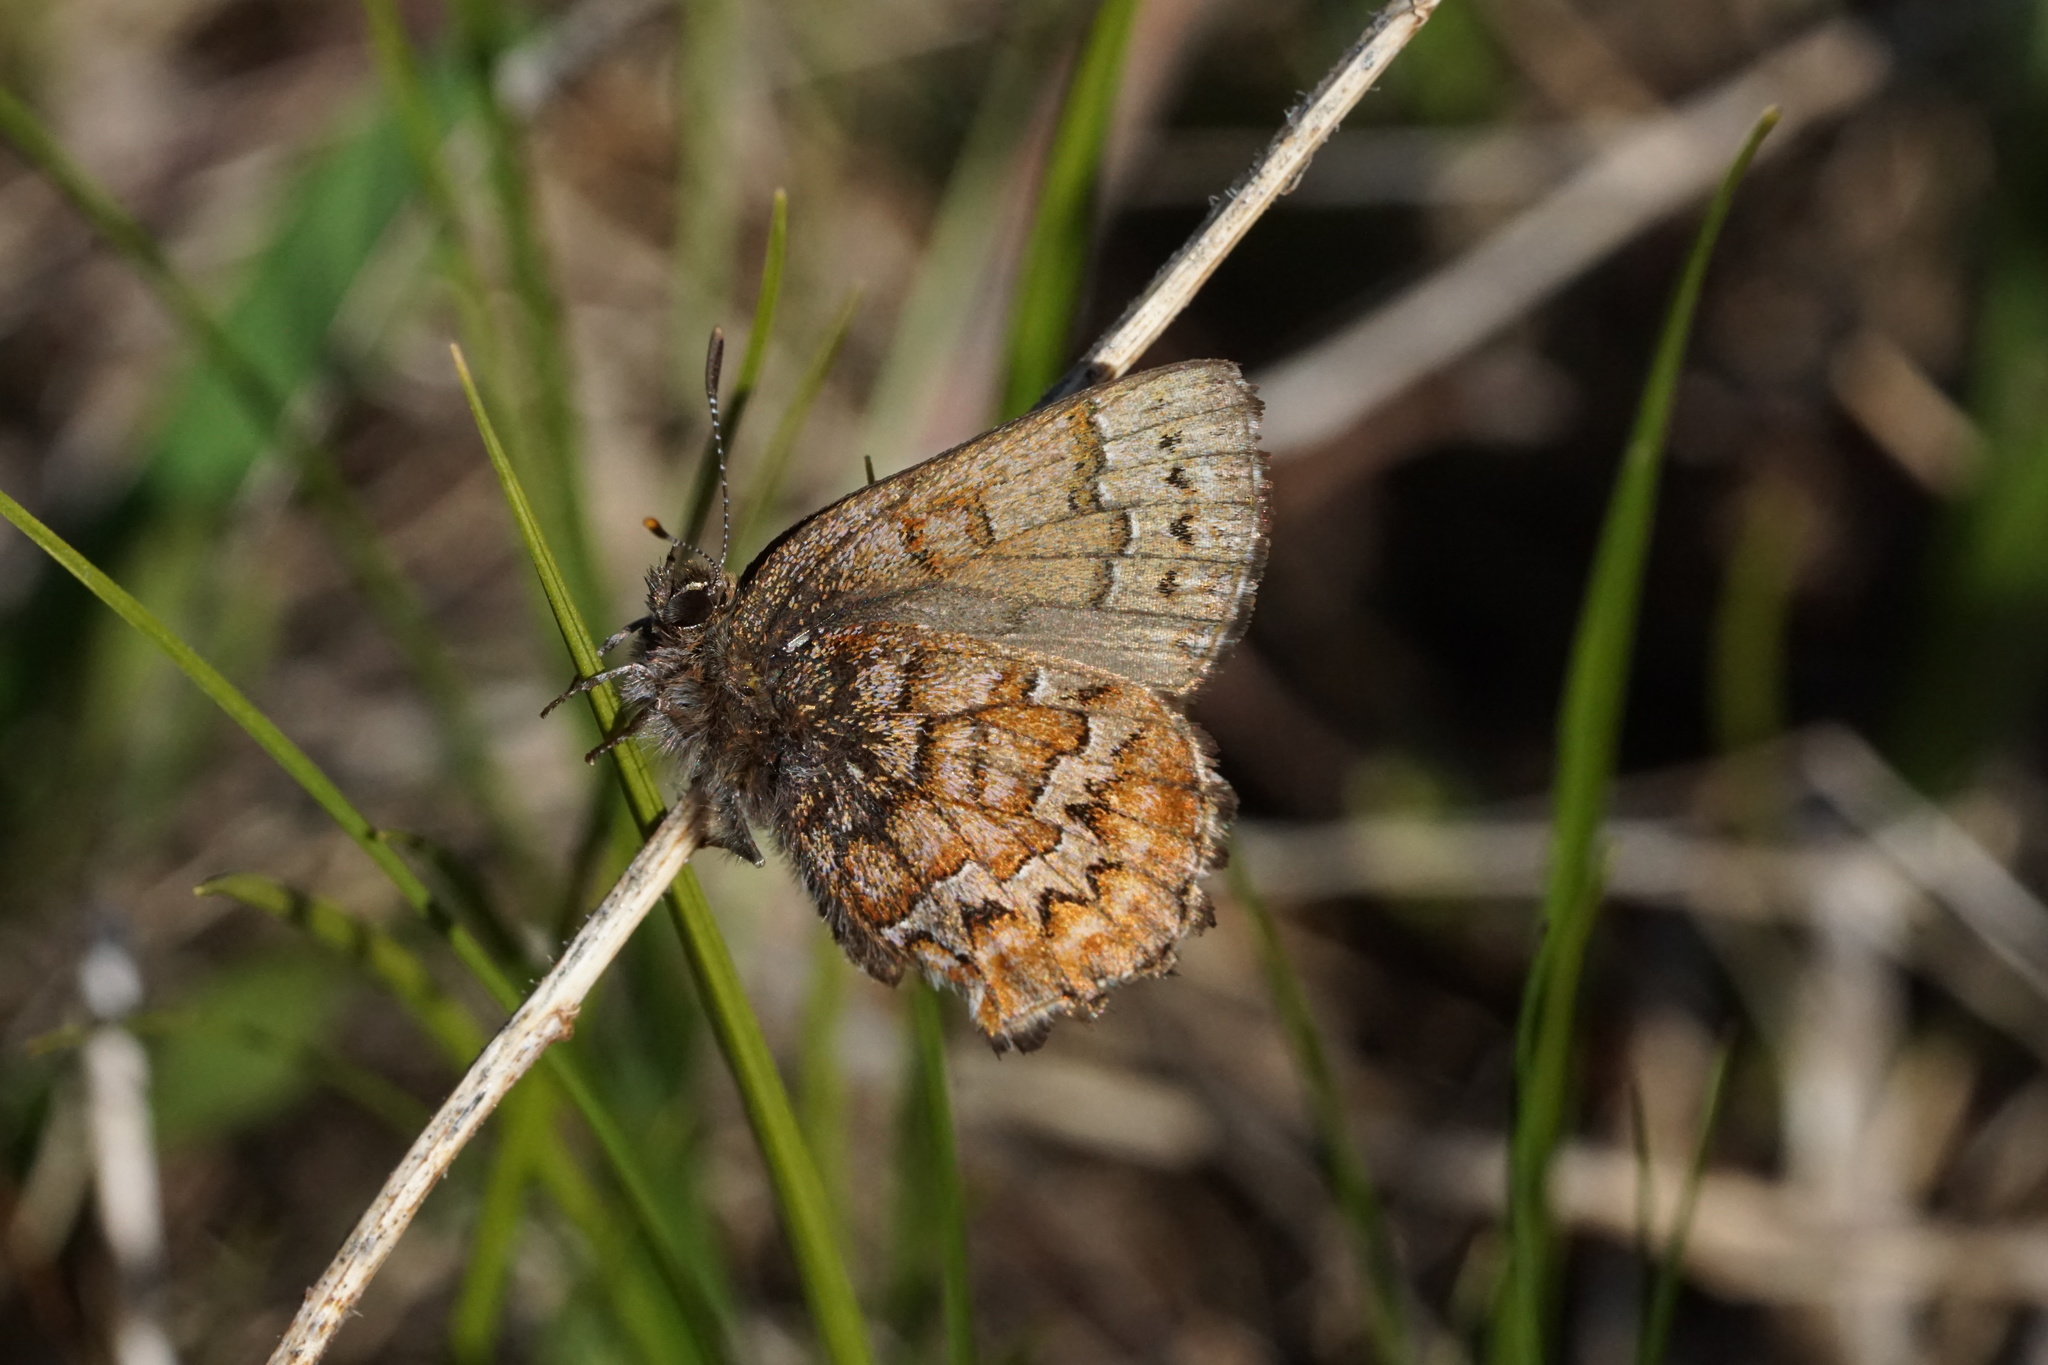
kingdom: Animalia
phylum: Arthropoda
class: Insecta
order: Lepidoptera
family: Lycaenidae
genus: Incisalia
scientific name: Incisalia niphon
